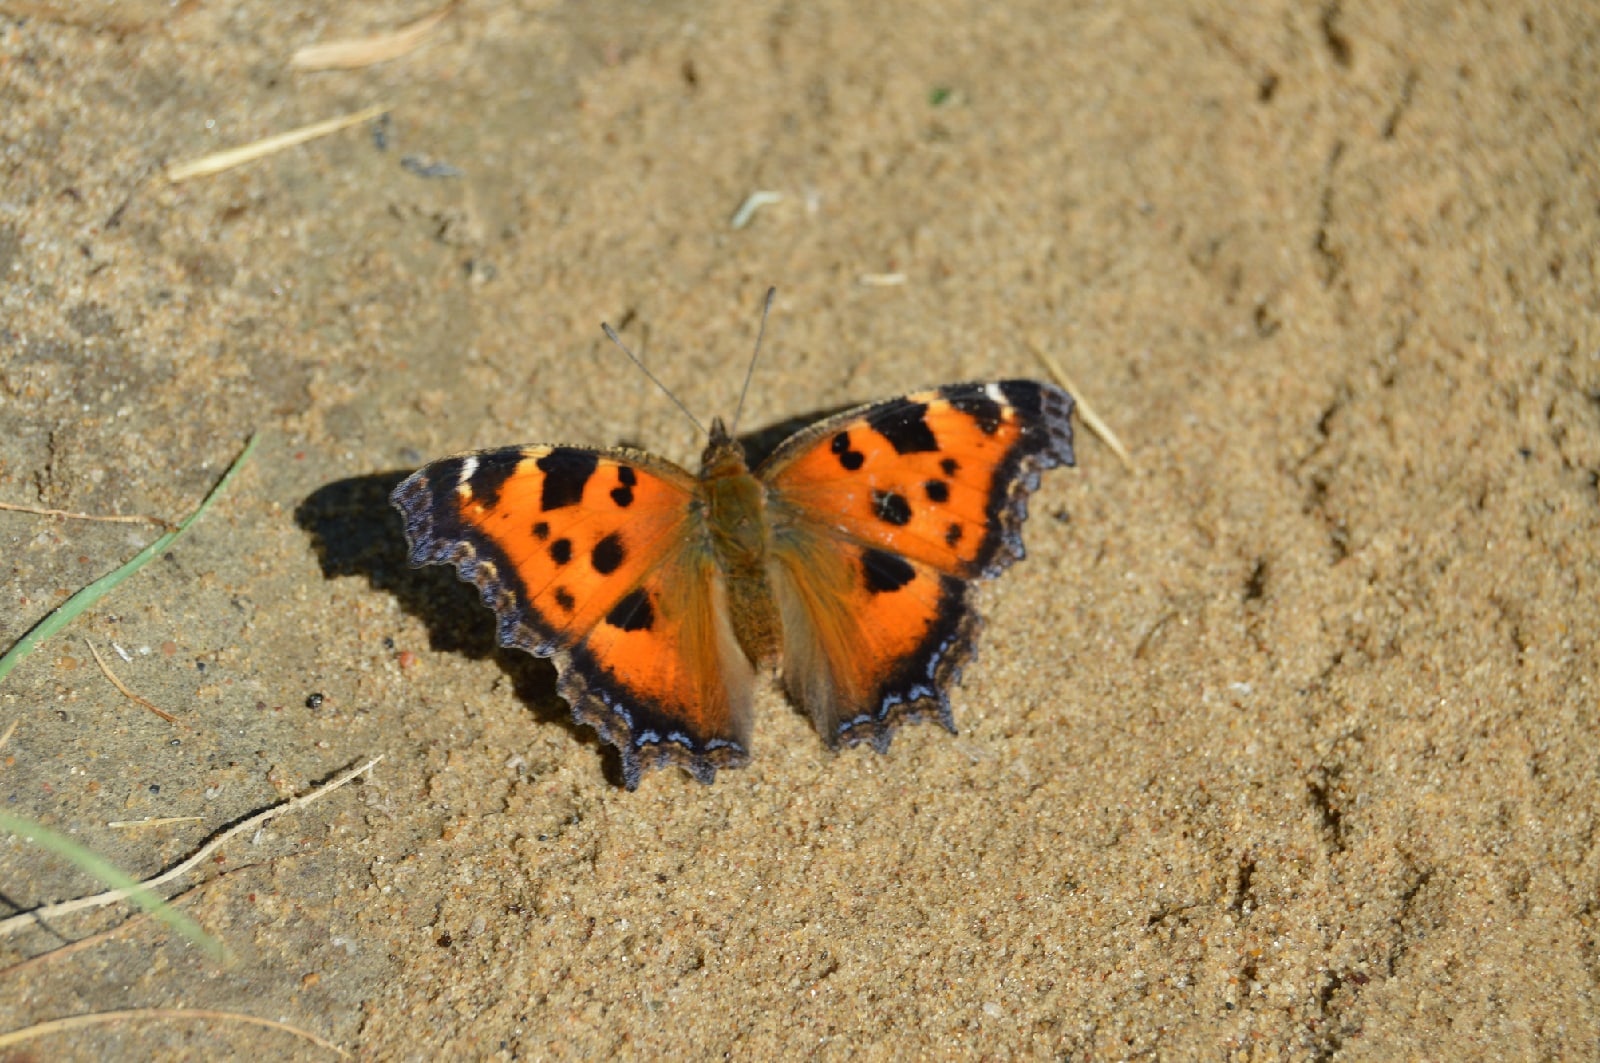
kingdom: Animalia
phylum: Arthropoda
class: Insecta
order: Lepidoptera
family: Nymphalidae
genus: Nymphalis
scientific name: Nymphalis xanthomelas
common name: Scarce tortoiseshell
